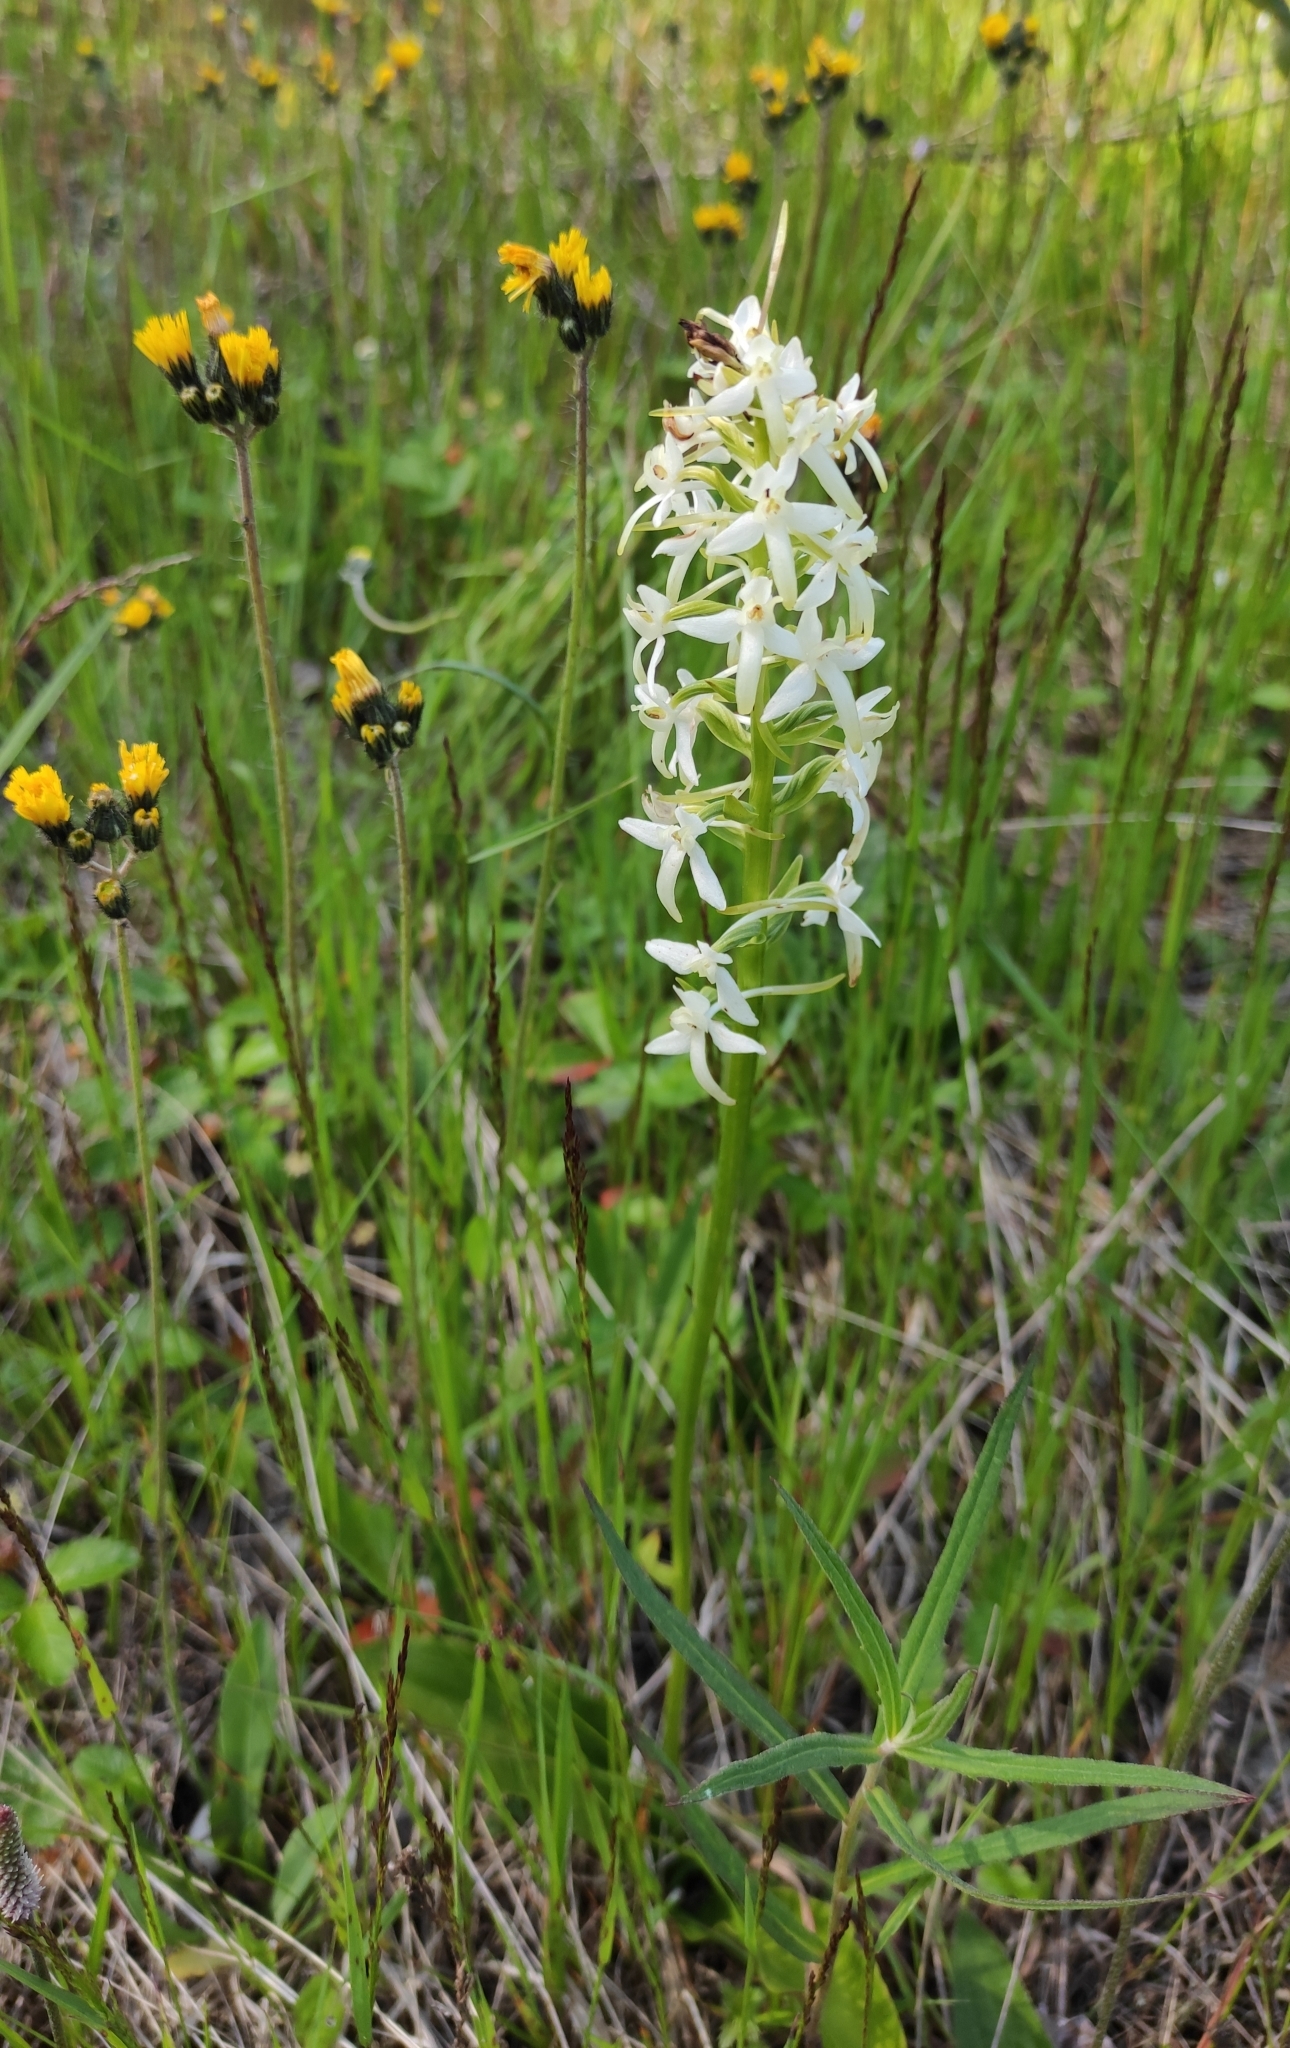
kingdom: Plantae
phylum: Tracheophyta
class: Liliopsida
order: Asparagales
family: Orchidaceae
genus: Platanthera
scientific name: Platanthera bifolia
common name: Lesser butterfly-orchid
